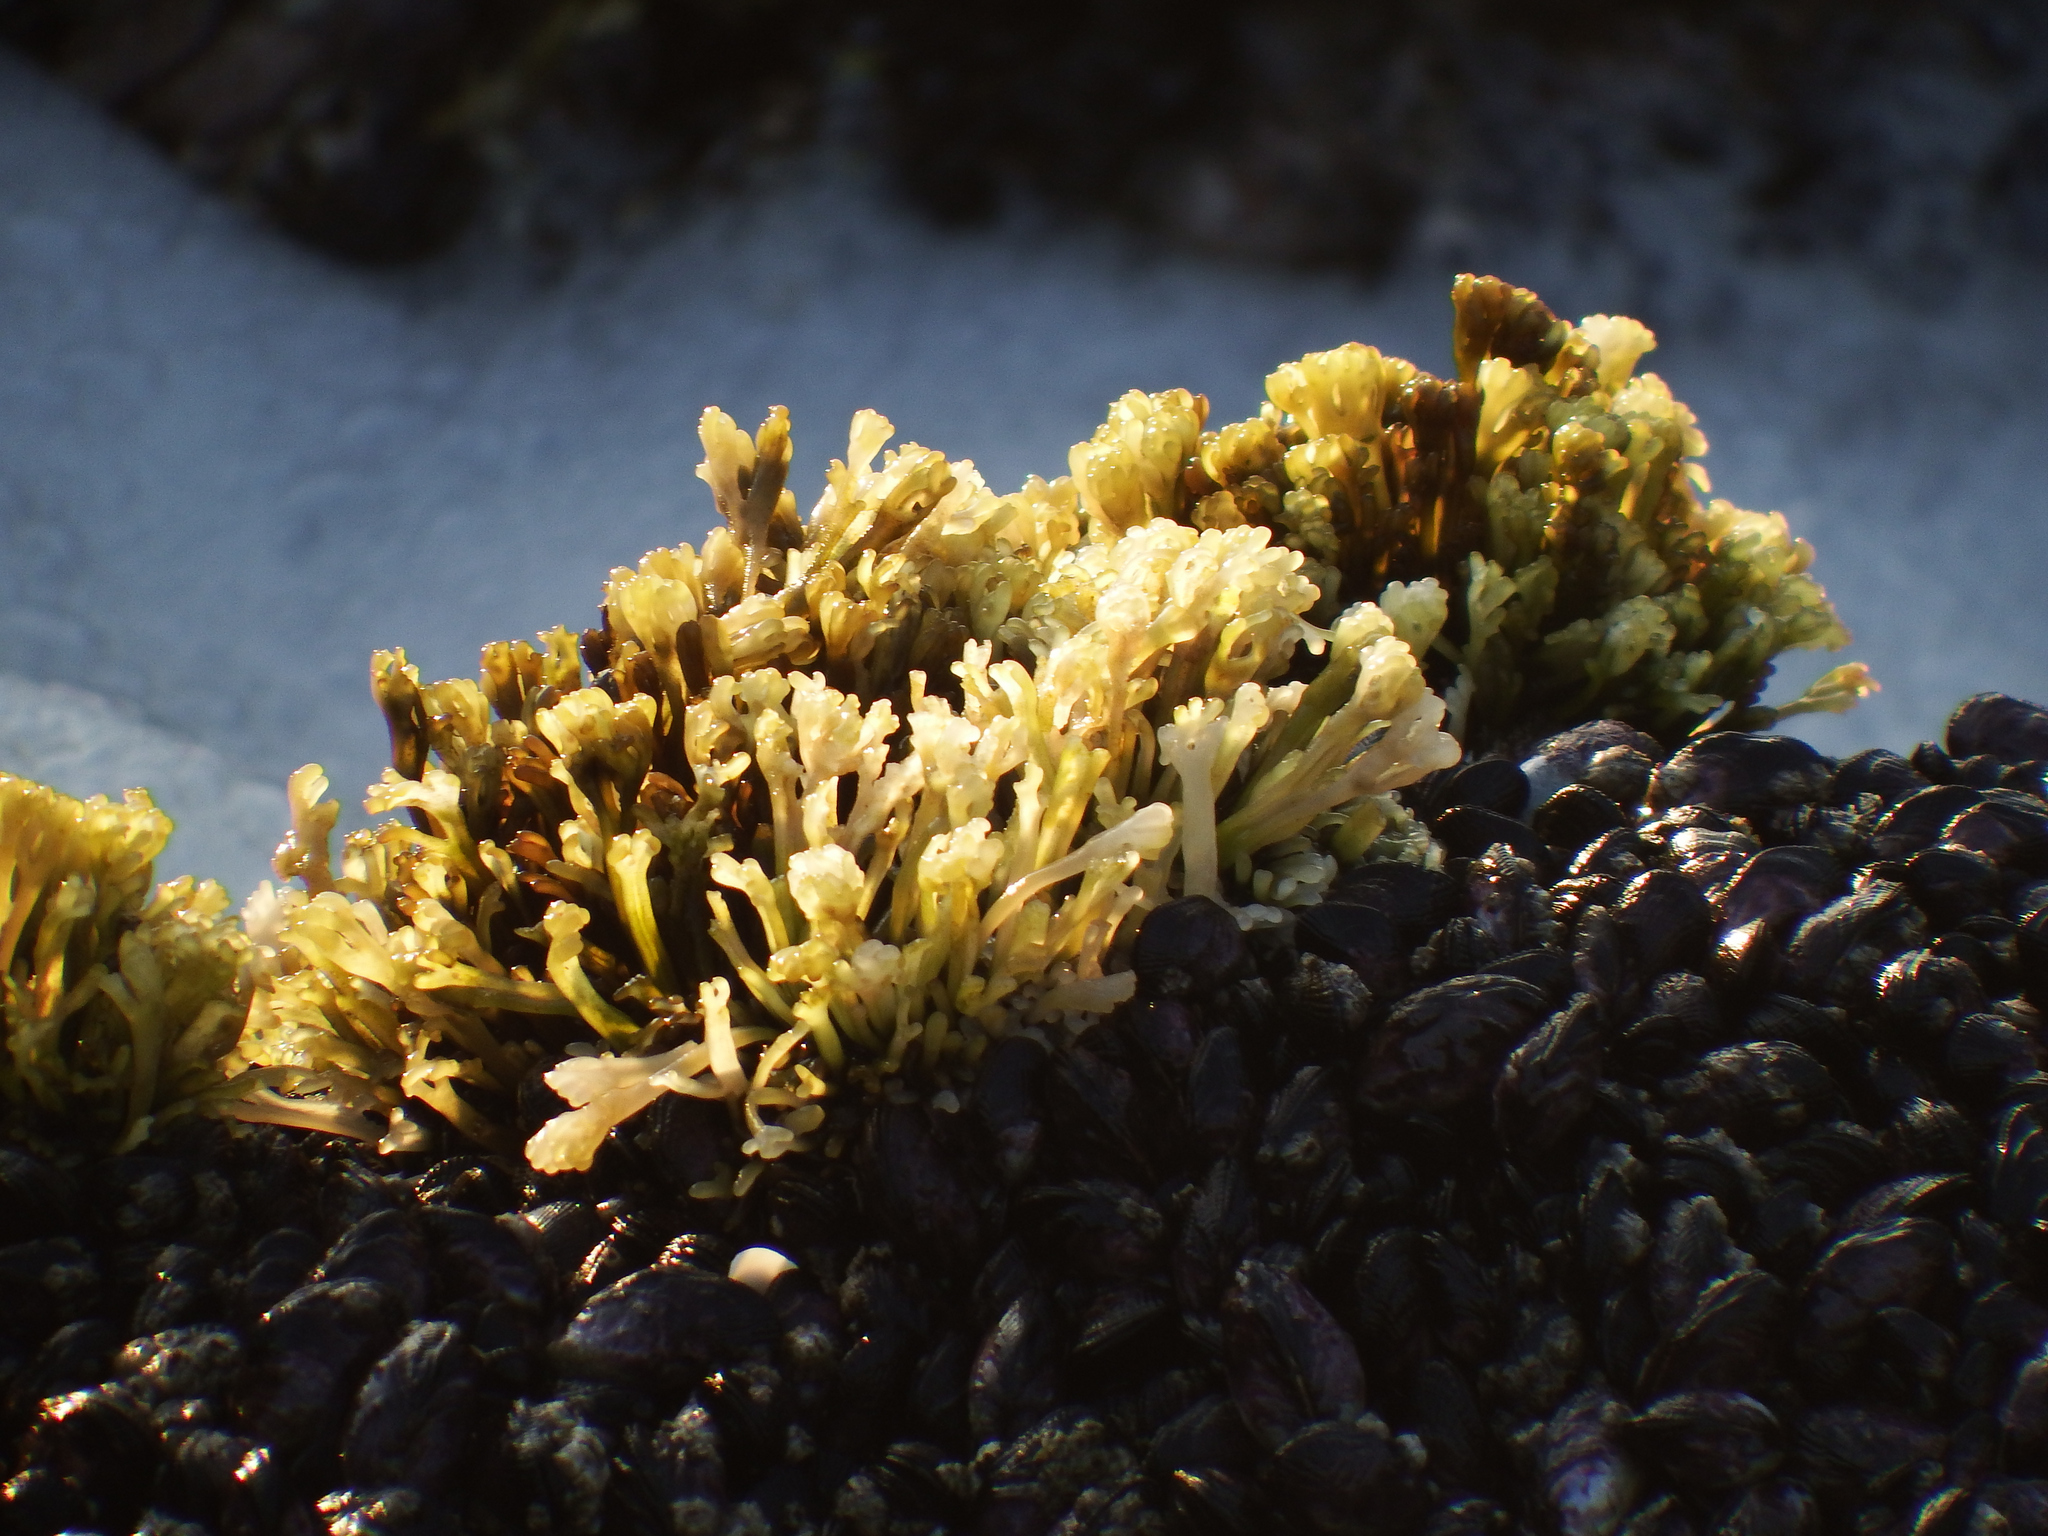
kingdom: Plantae
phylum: Rhodophyta
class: Florideophyceae
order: Gigartinales
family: Phyllophoraceae
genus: Gymnogongrus
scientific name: Gymnogongrus durvillei
